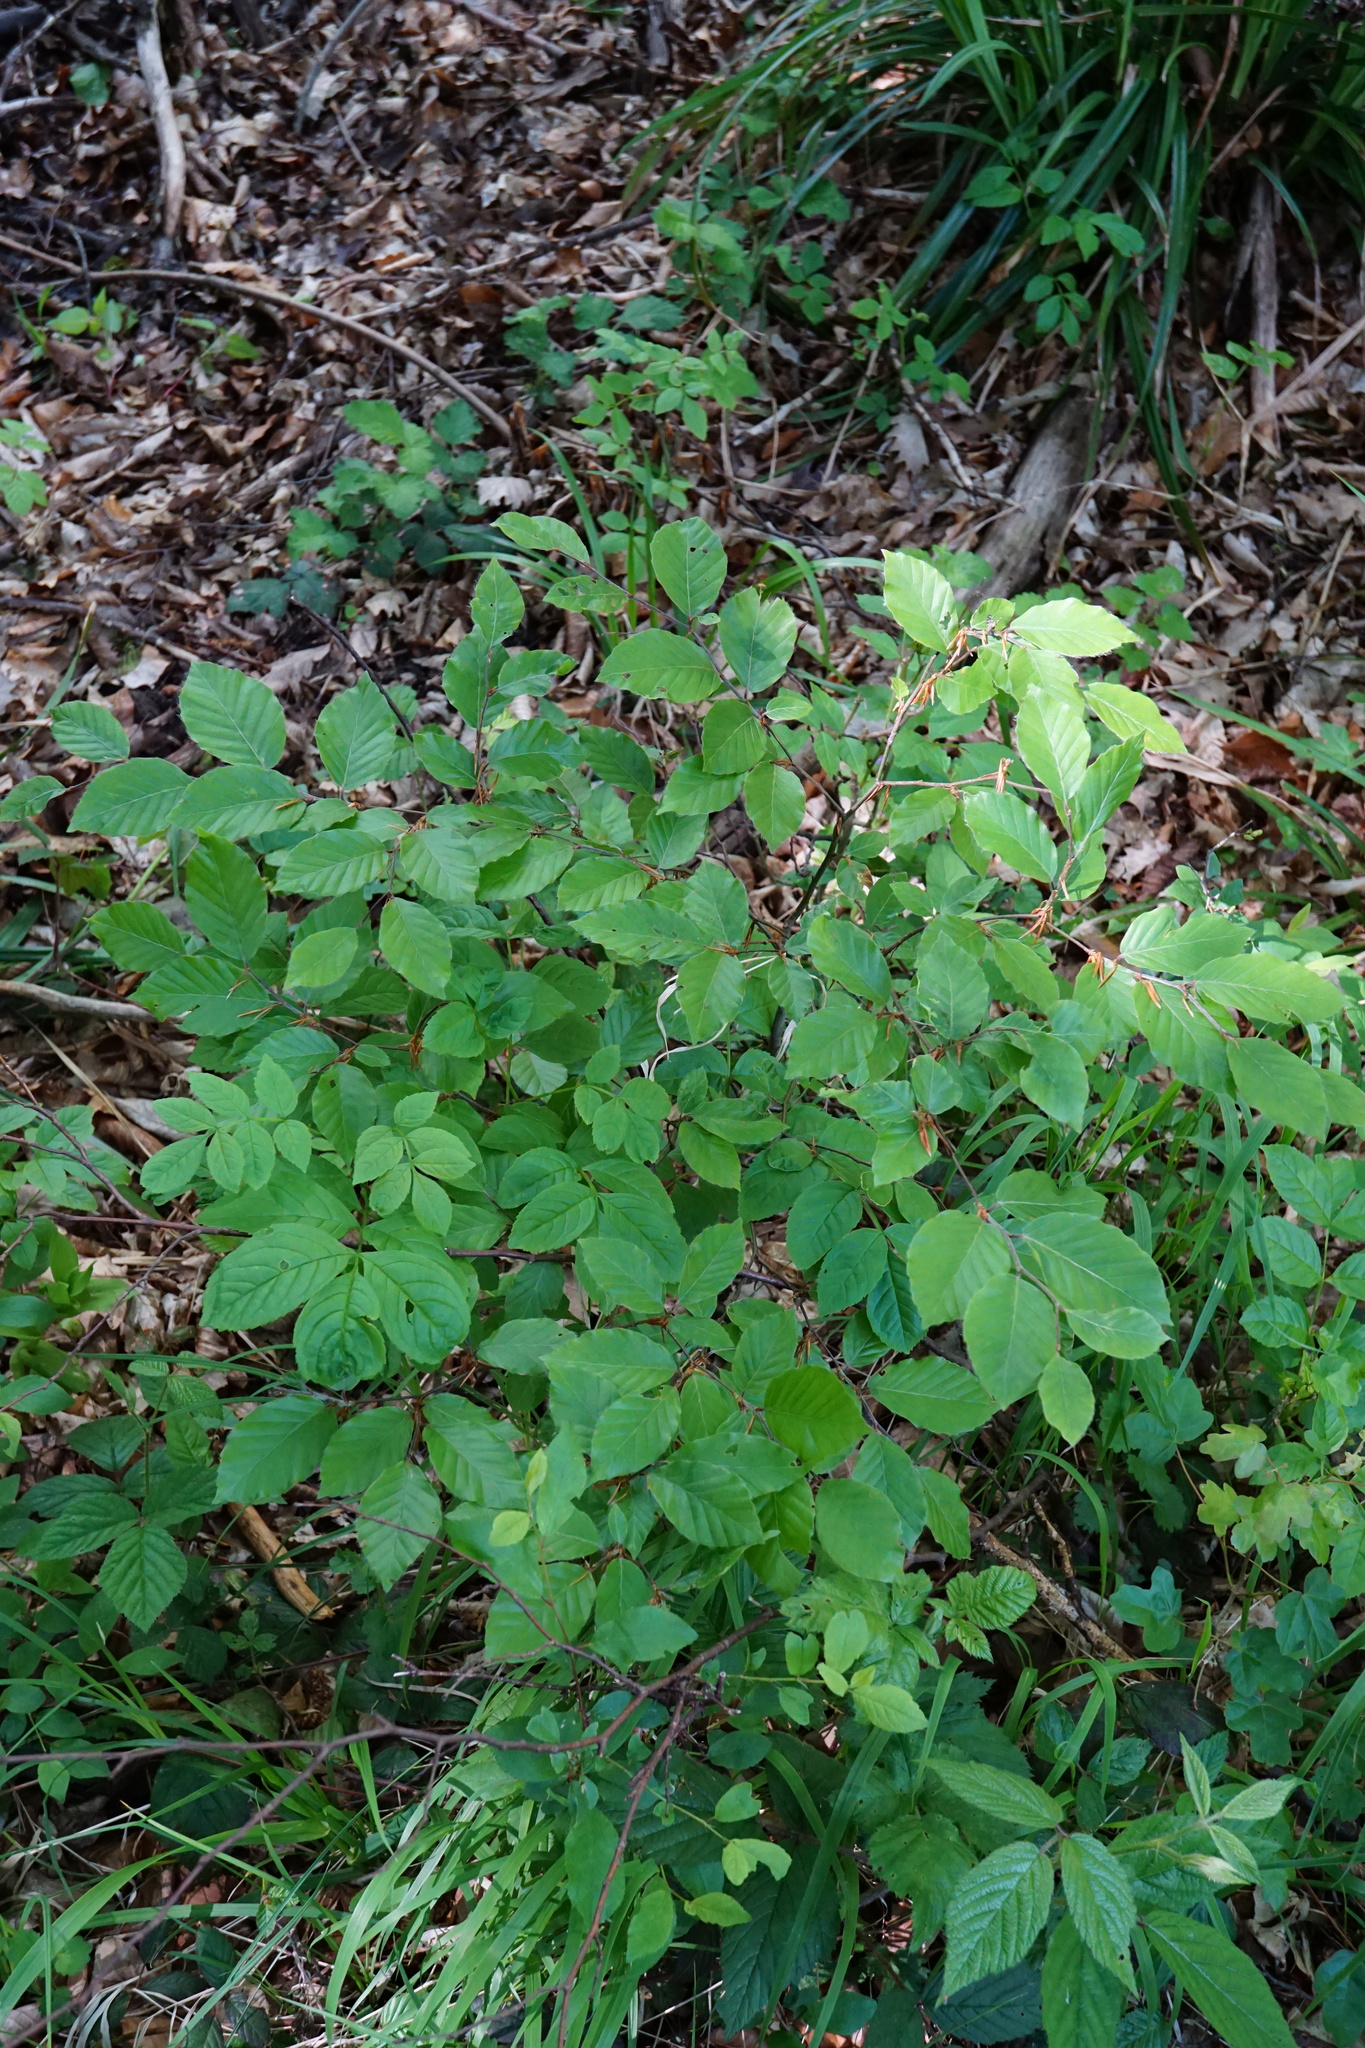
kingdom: Plantae
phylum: Tracheophyta
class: Magnoliopsida
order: Fagales
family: Fagaceae
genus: Fagus
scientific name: Fagus sylvatica
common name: Beech
